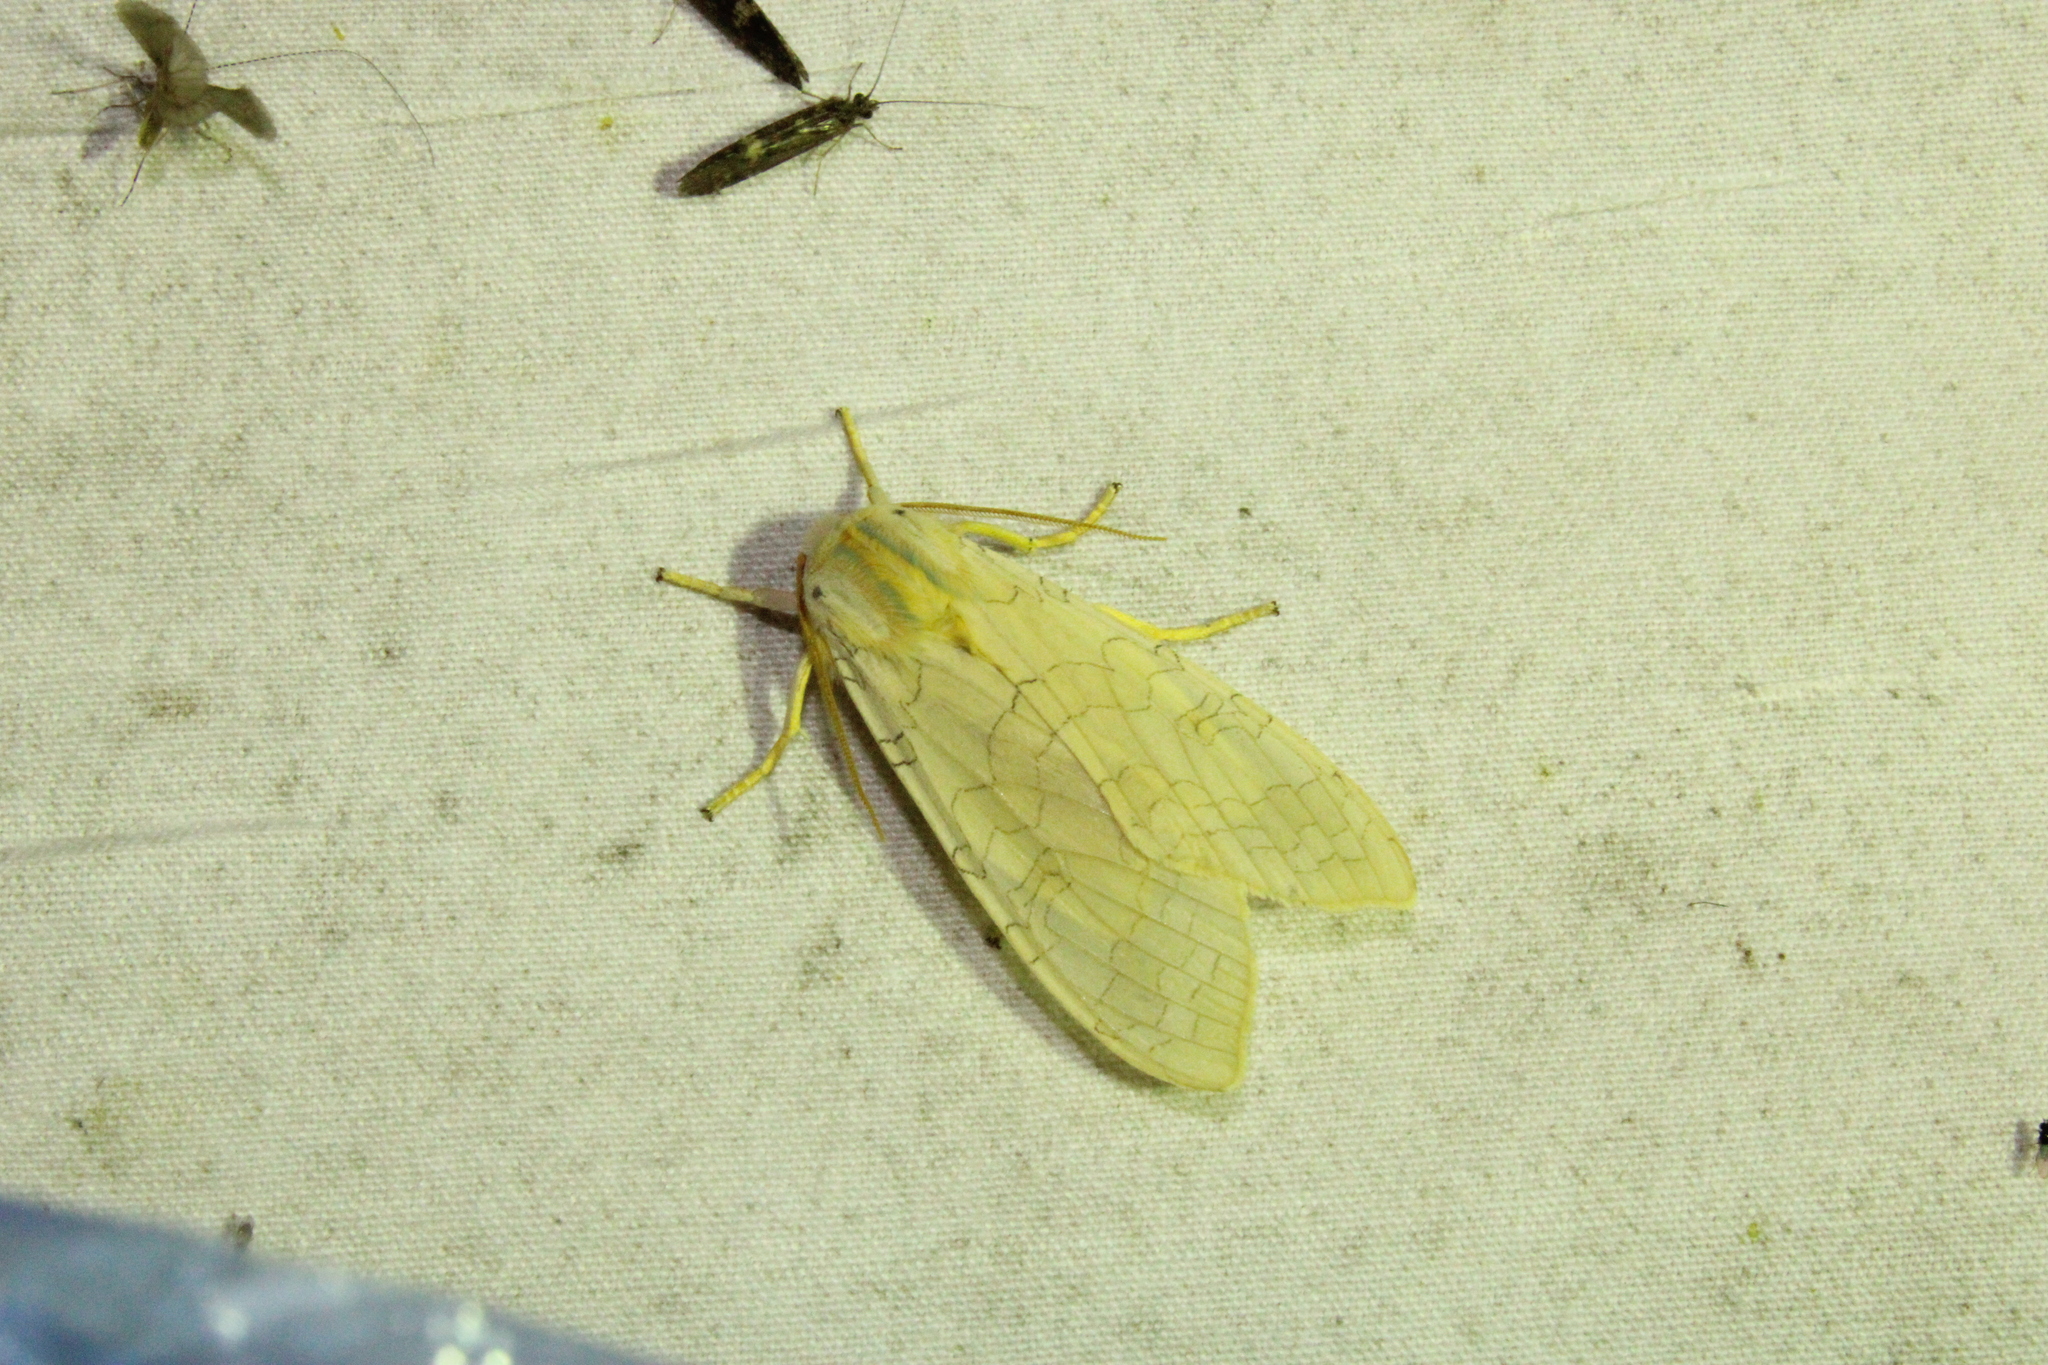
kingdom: Animalia
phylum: Arthropoda
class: Insecta
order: Lepidoptera
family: Erebidae
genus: Halysidota
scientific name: Halysidota
